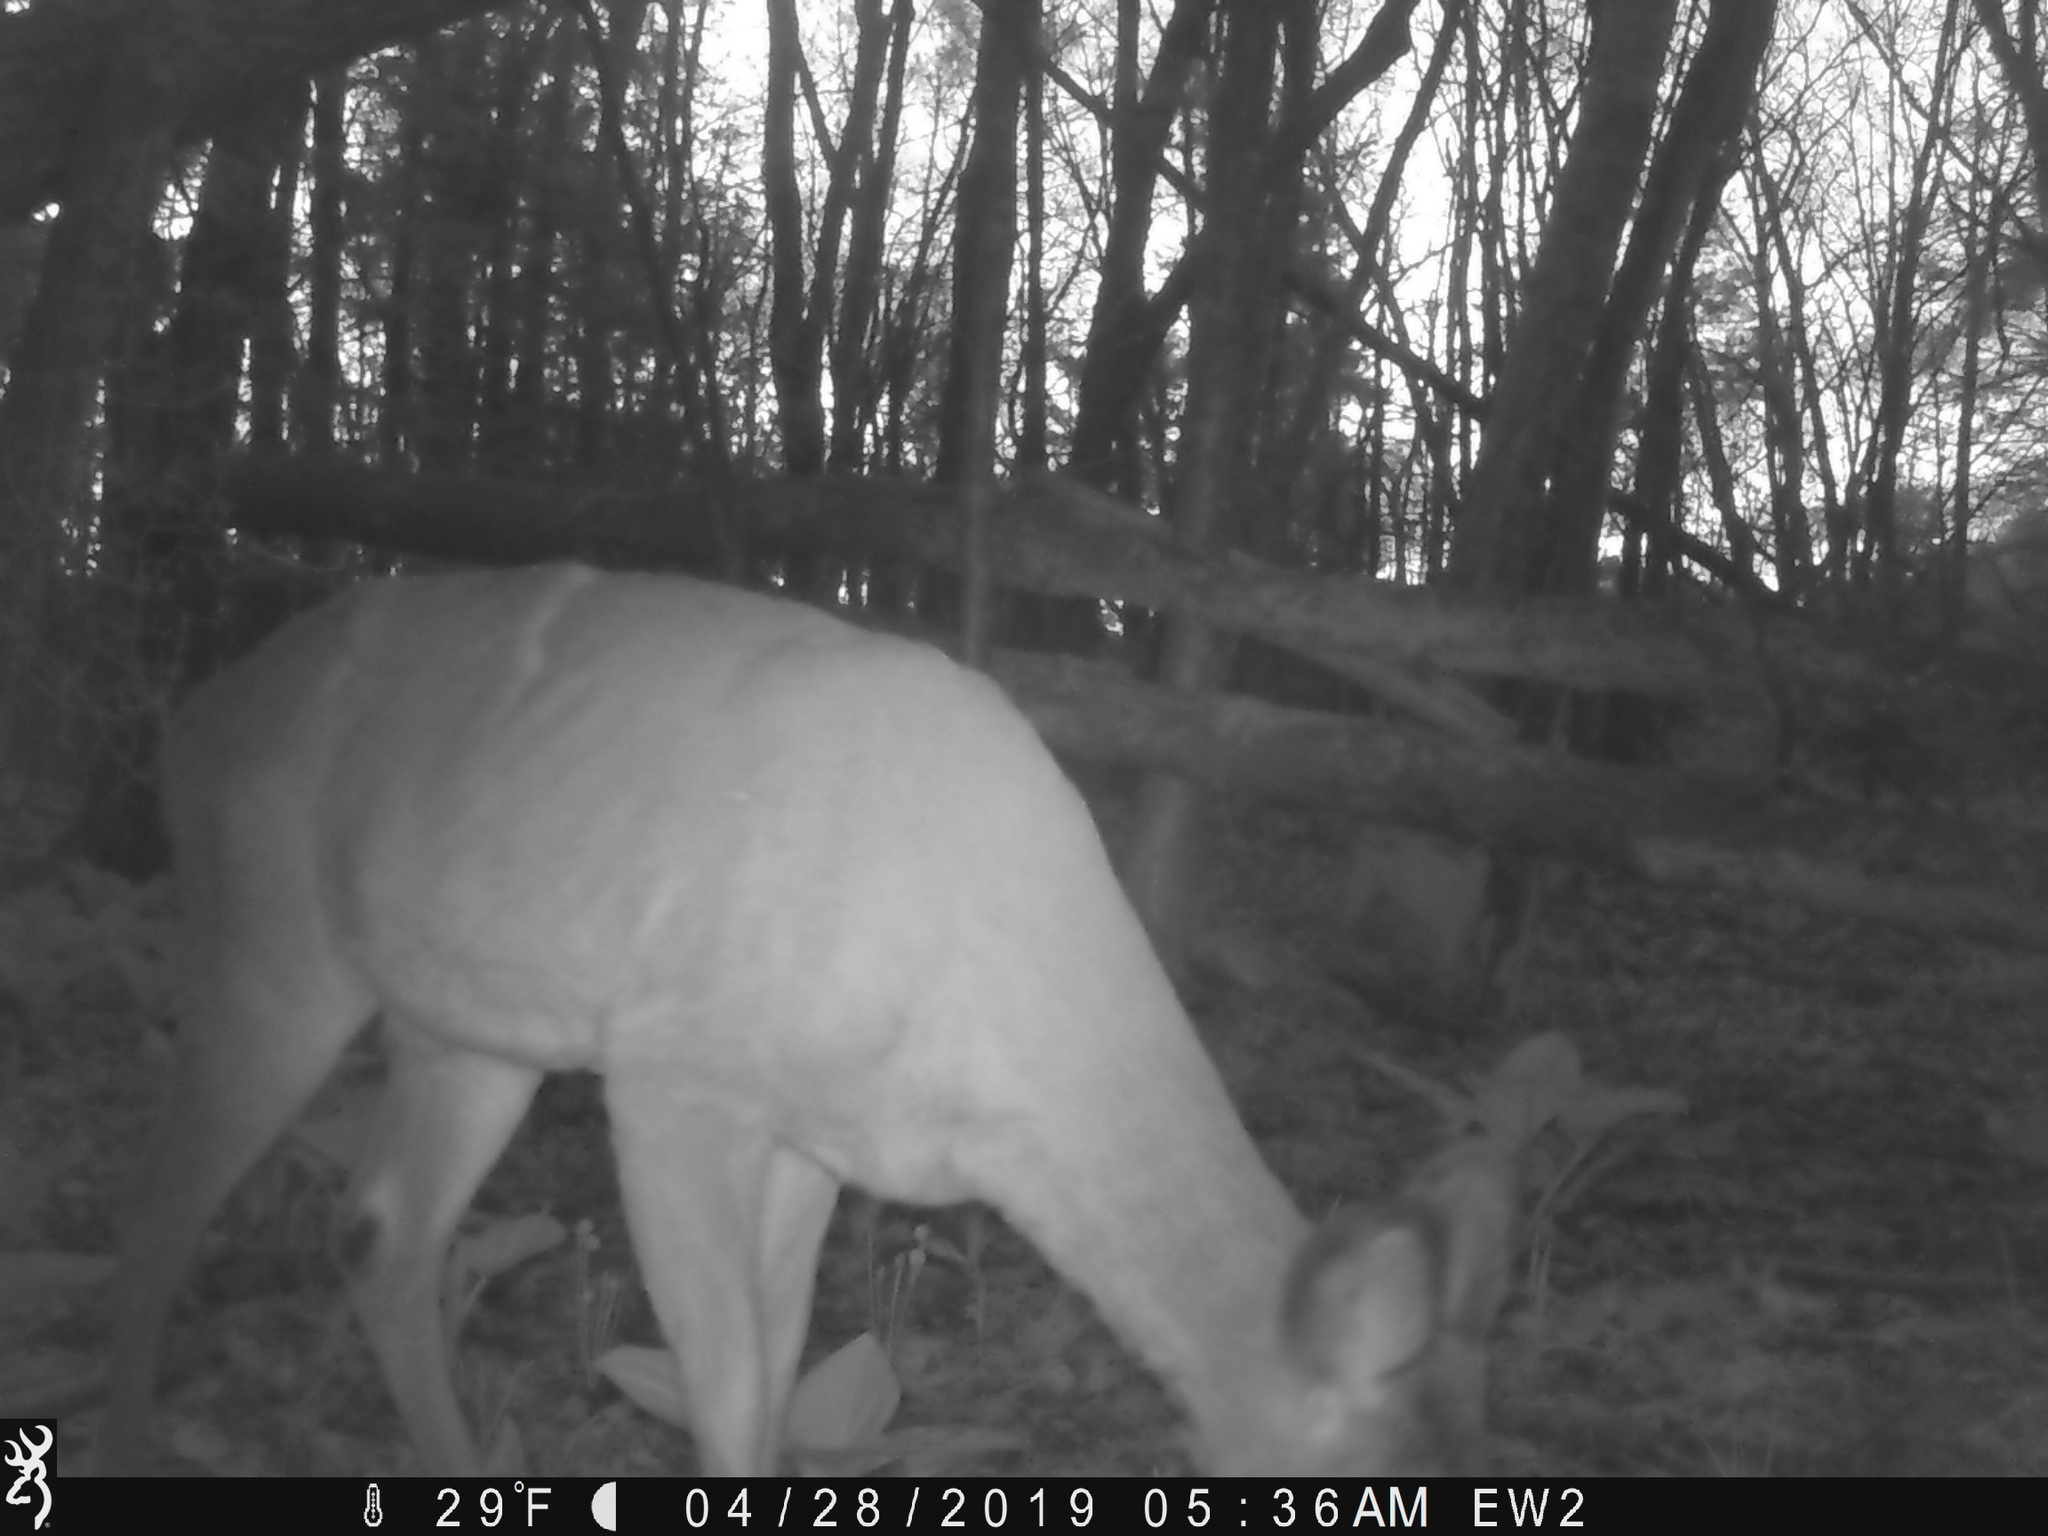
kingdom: Animalia
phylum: Chordata
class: Mammalia
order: Artiodactyla
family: Cervidae
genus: Odocoileus
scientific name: Odocoileus virginianus
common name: White-tailed deer
